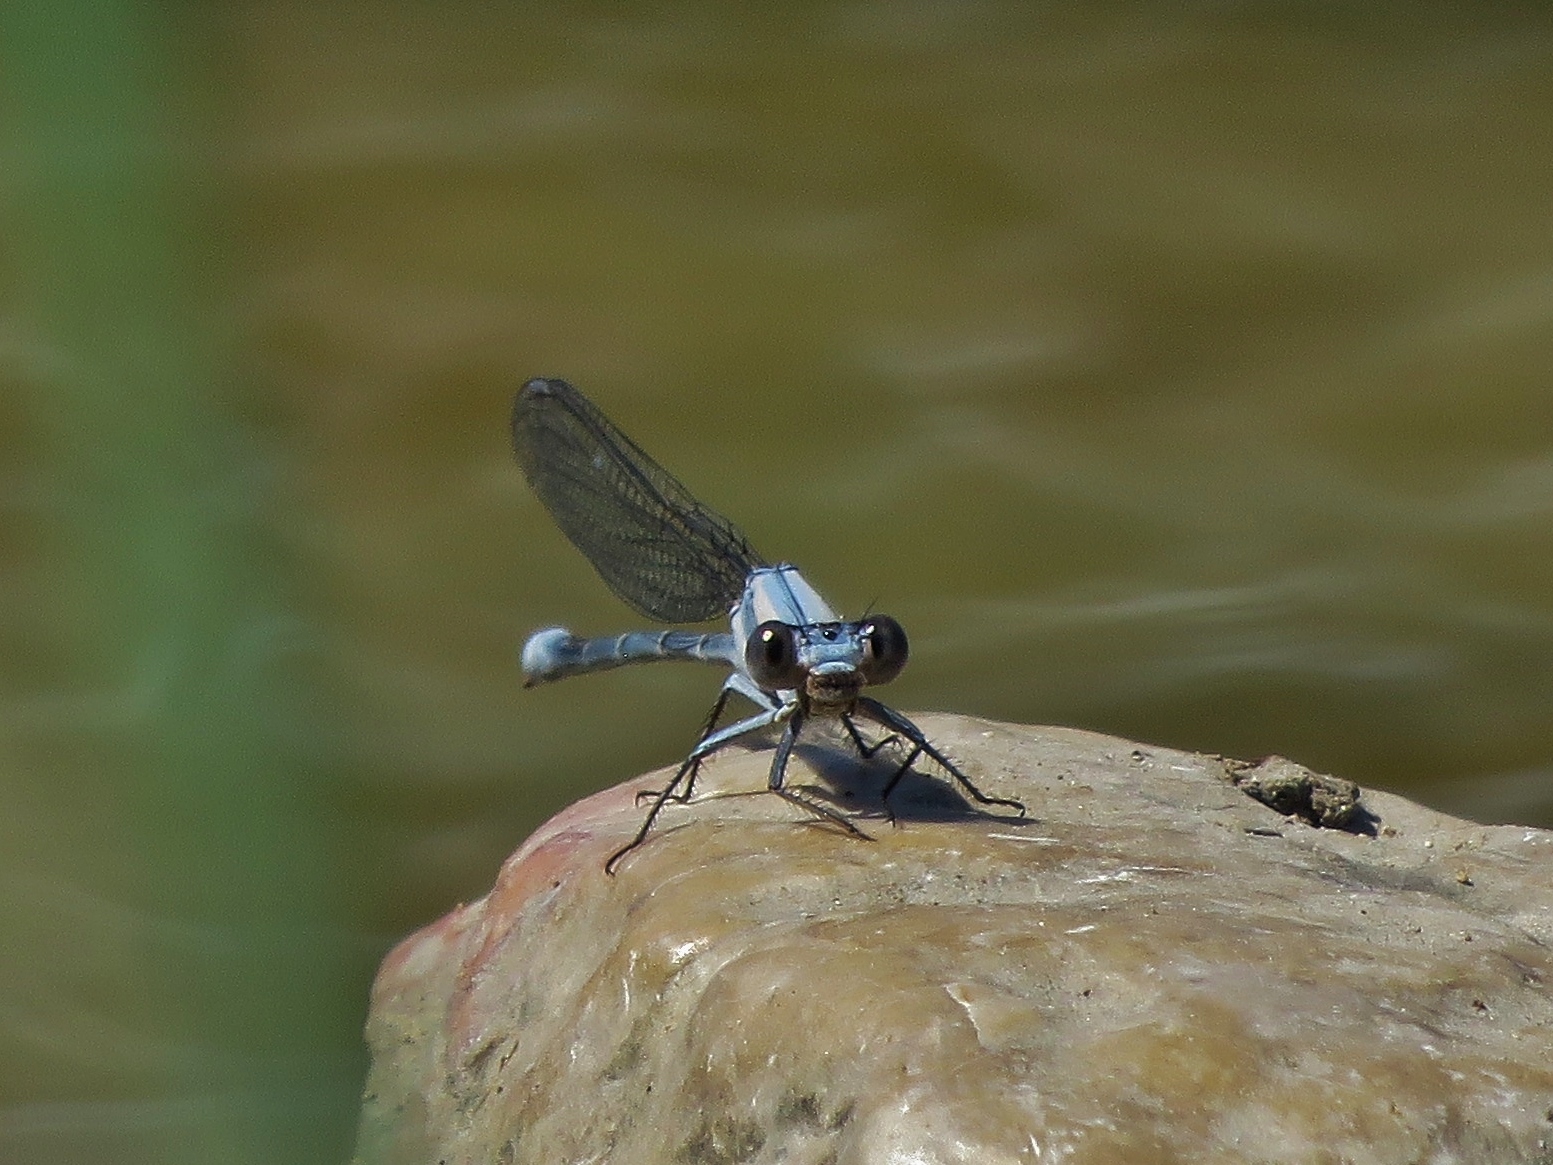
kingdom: Animalia
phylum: Arthropoda
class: Insecta
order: Odonata
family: Coenagrionidae
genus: Argia
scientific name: Argia moesta
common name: Powdered dancer
